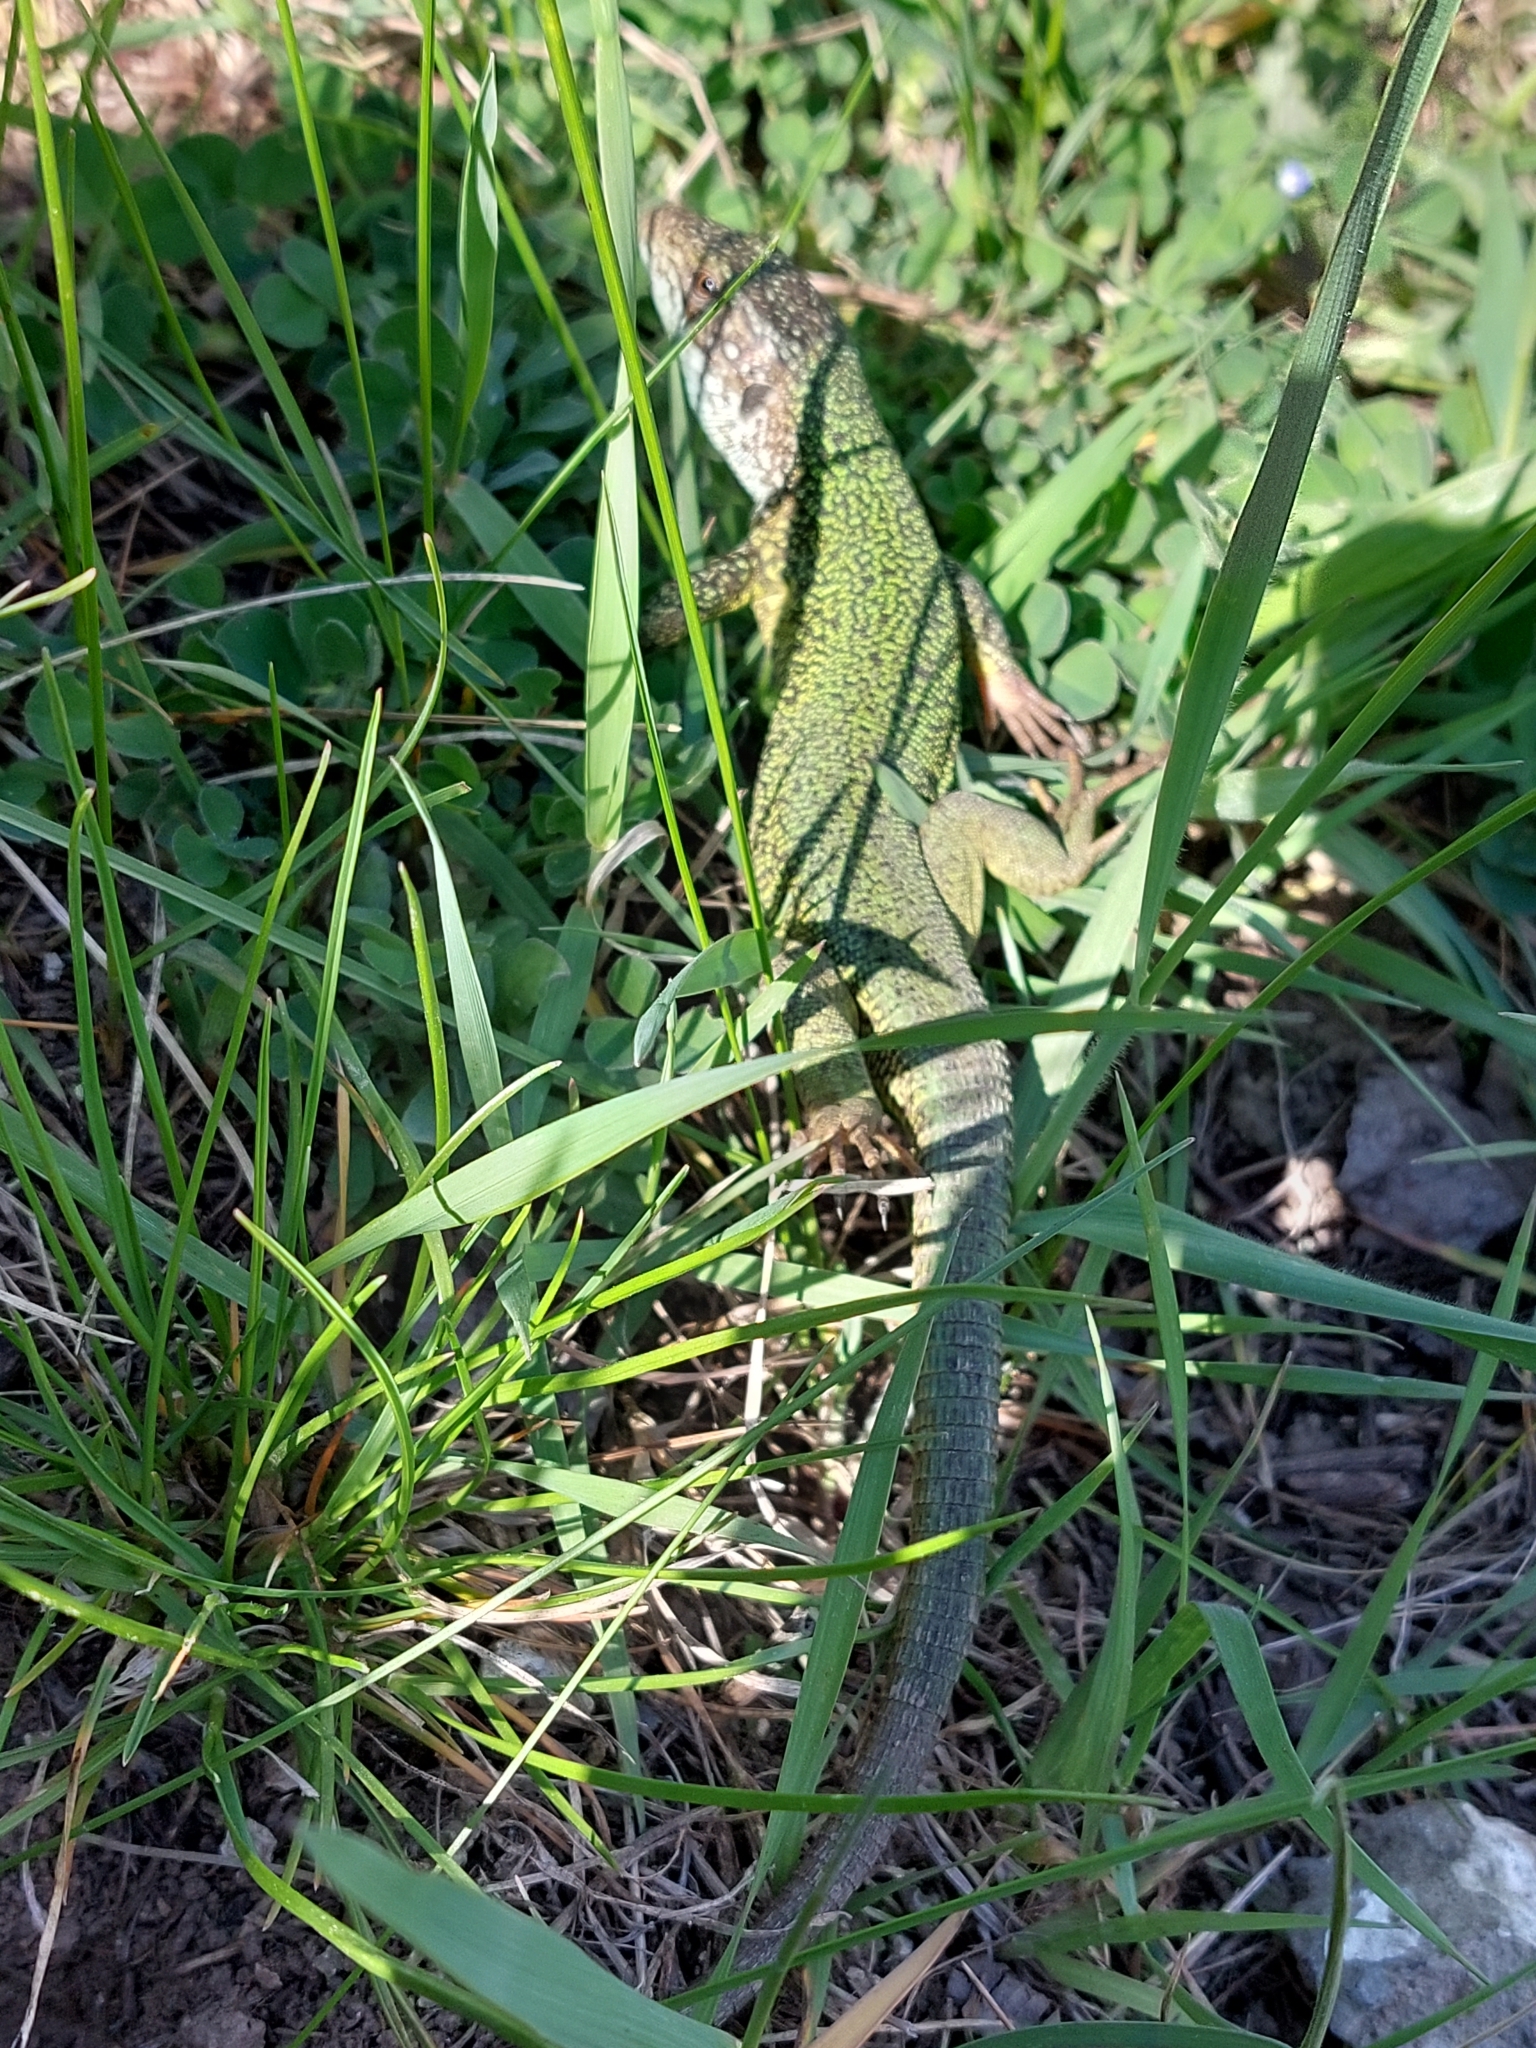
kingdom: Animalia
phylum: Chordata
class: Squamata
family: Lacertidae
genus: Lacerta
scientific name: Lacerta viridis
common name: European green lizard
